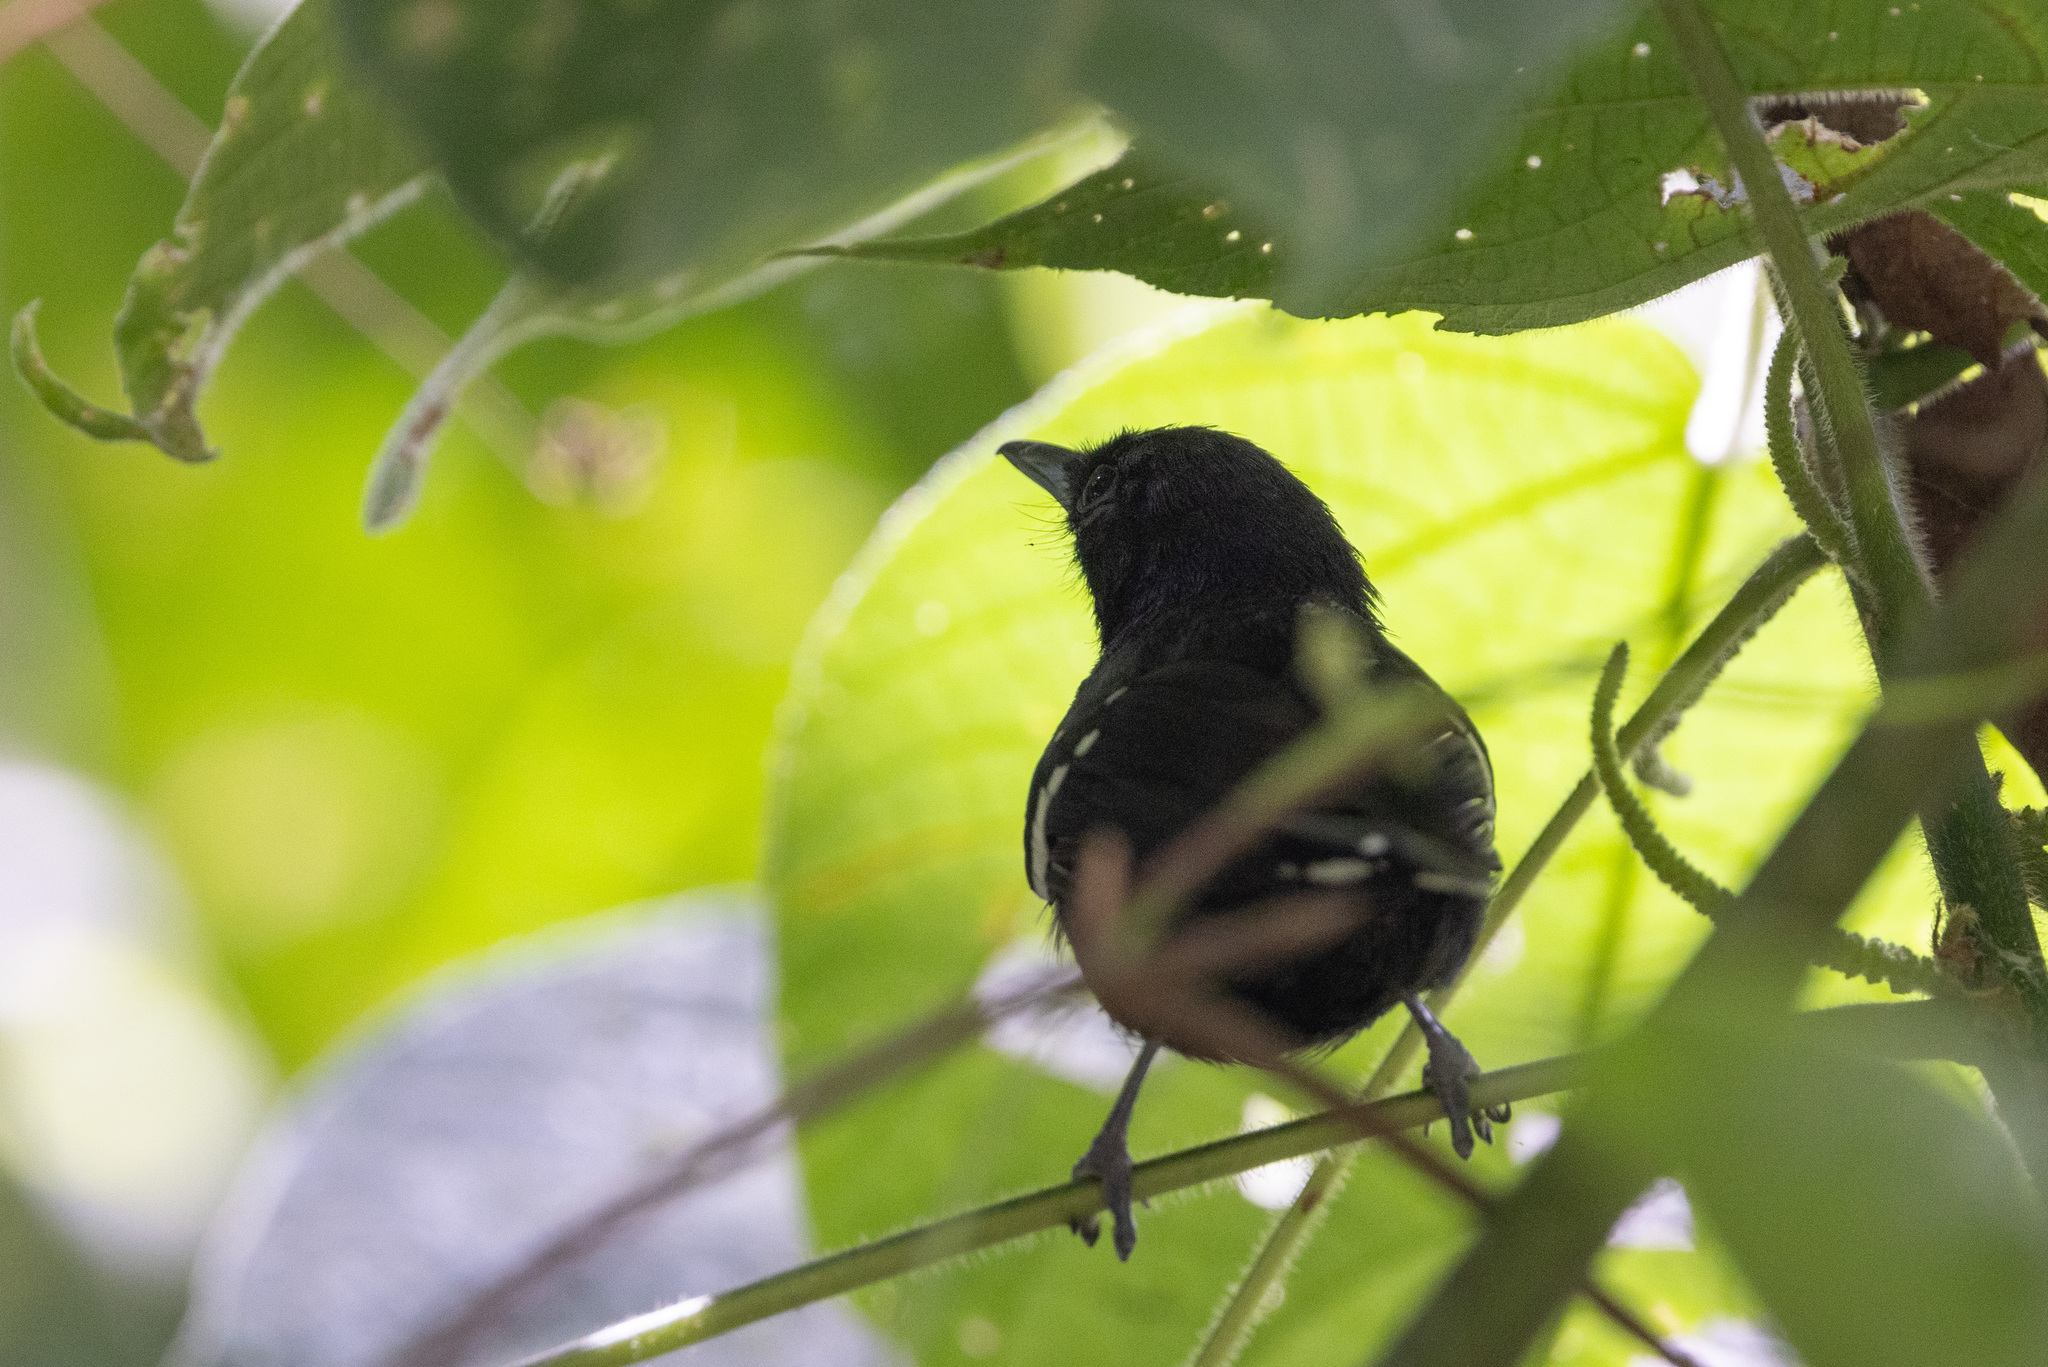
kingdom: Animalia
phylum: Chordata
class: Aves
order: Passeriformes
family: Thamnophilidae
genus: Microrhopias
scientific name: Microrhopias quixensis
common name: Dot-winged antwren
